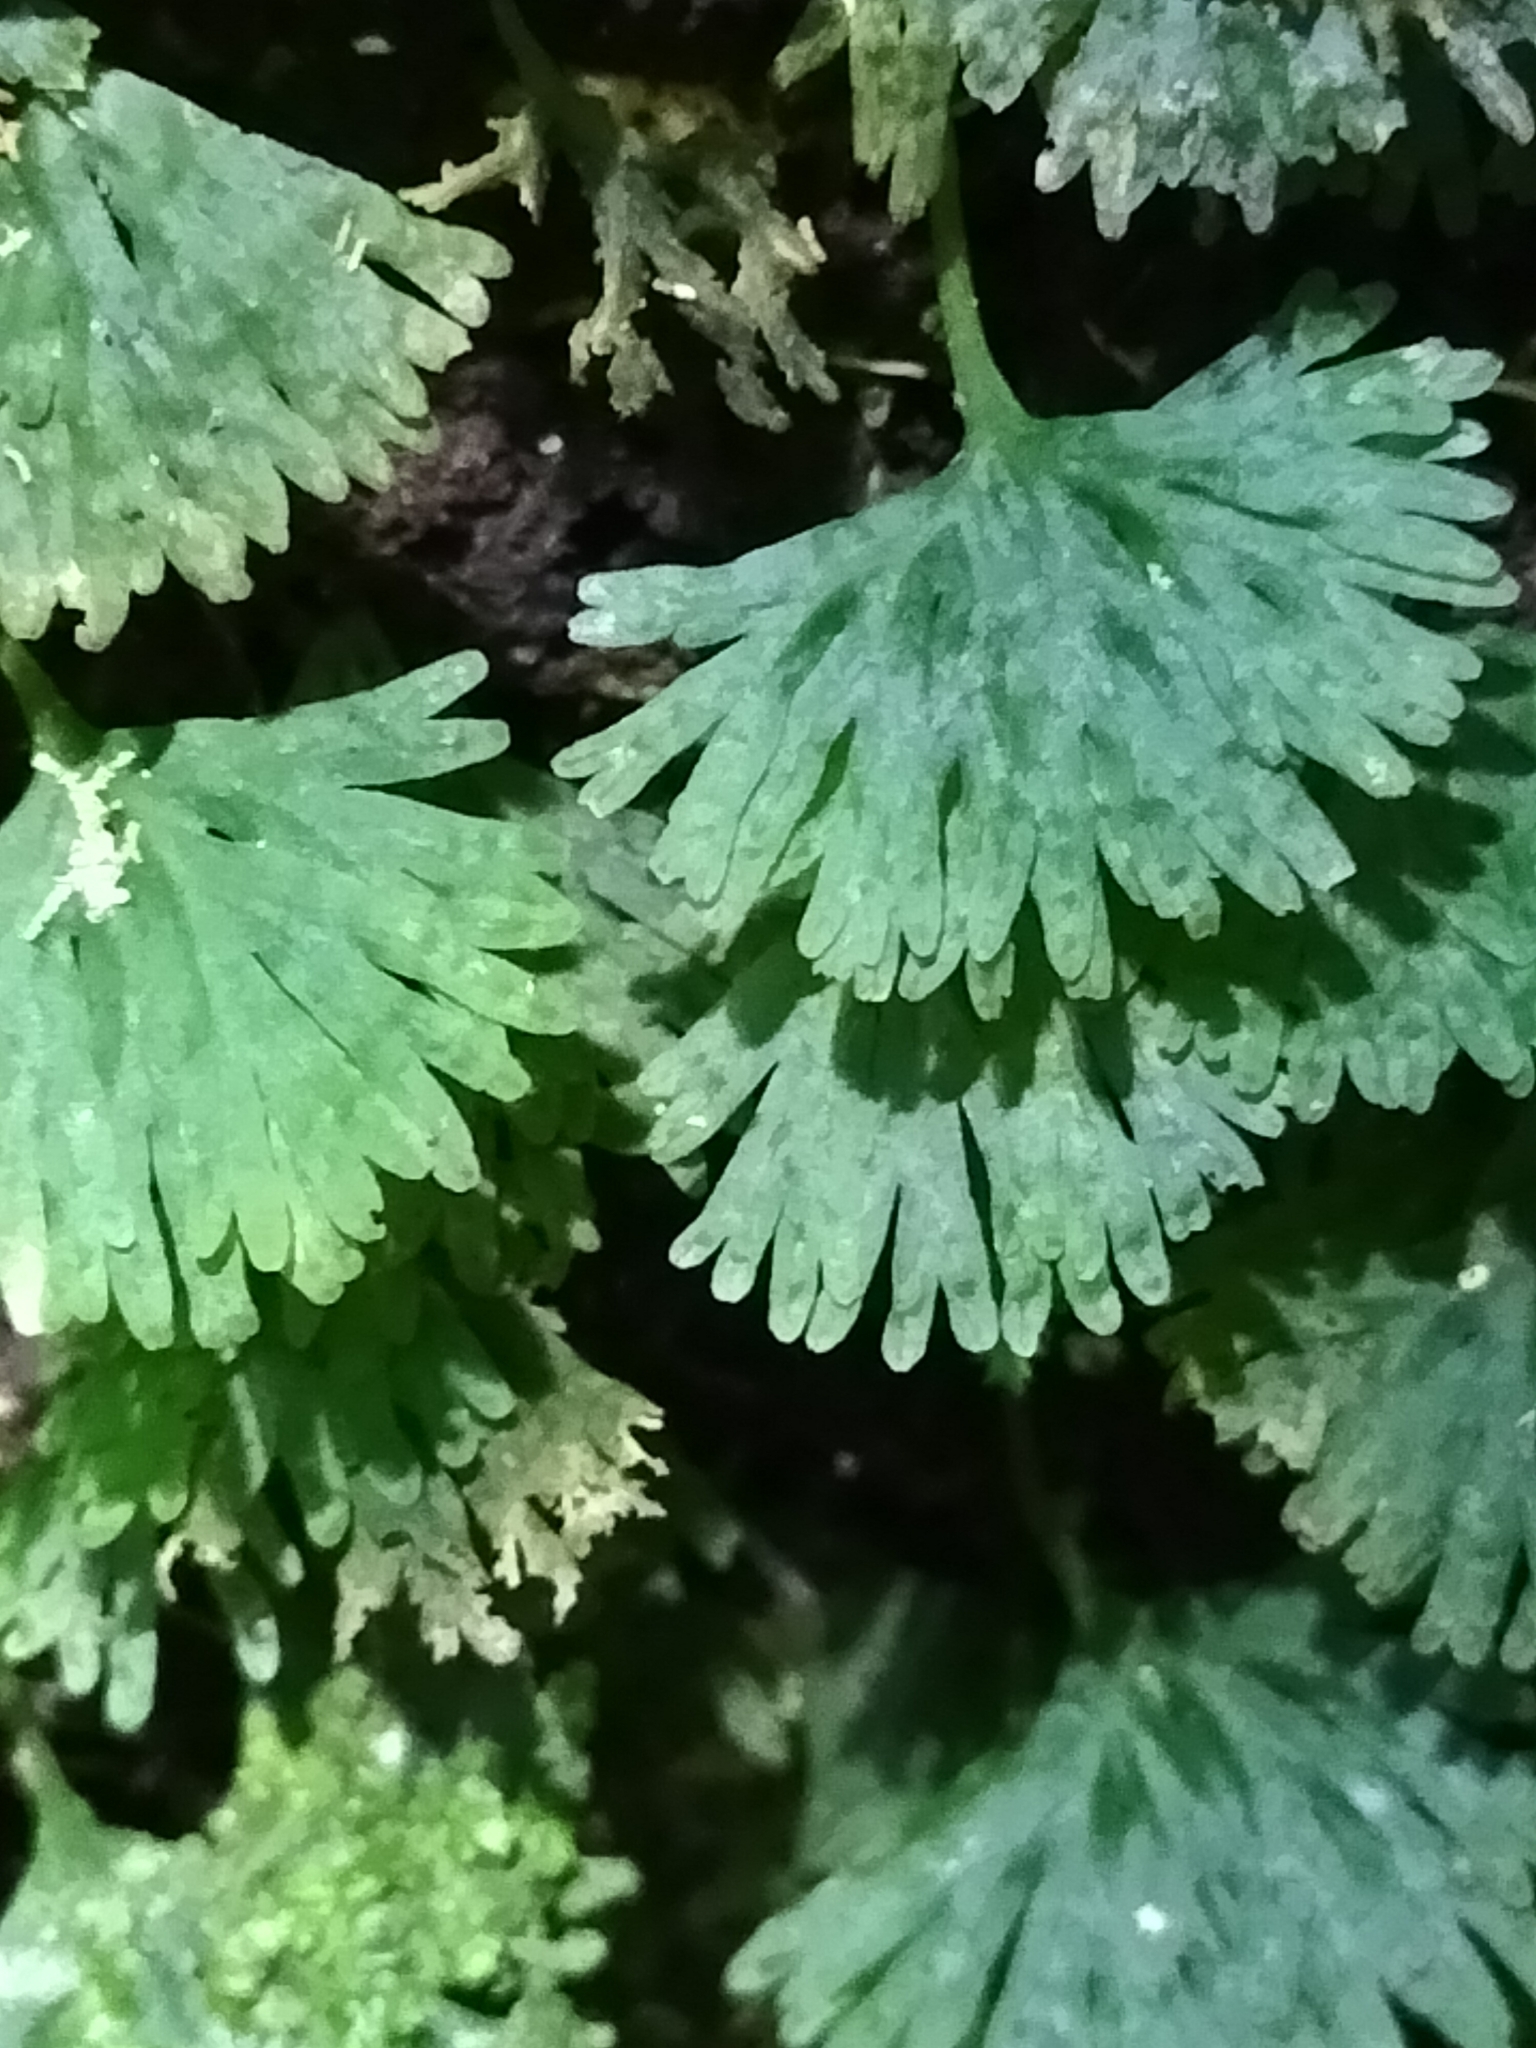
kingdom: Plantae
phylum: Marchantiophyta
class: Jungermanniopsida
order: Pallaviciniales
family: Hymenophytaceae
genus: Hymenophyton
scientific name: Hymenophyton flabellatum
